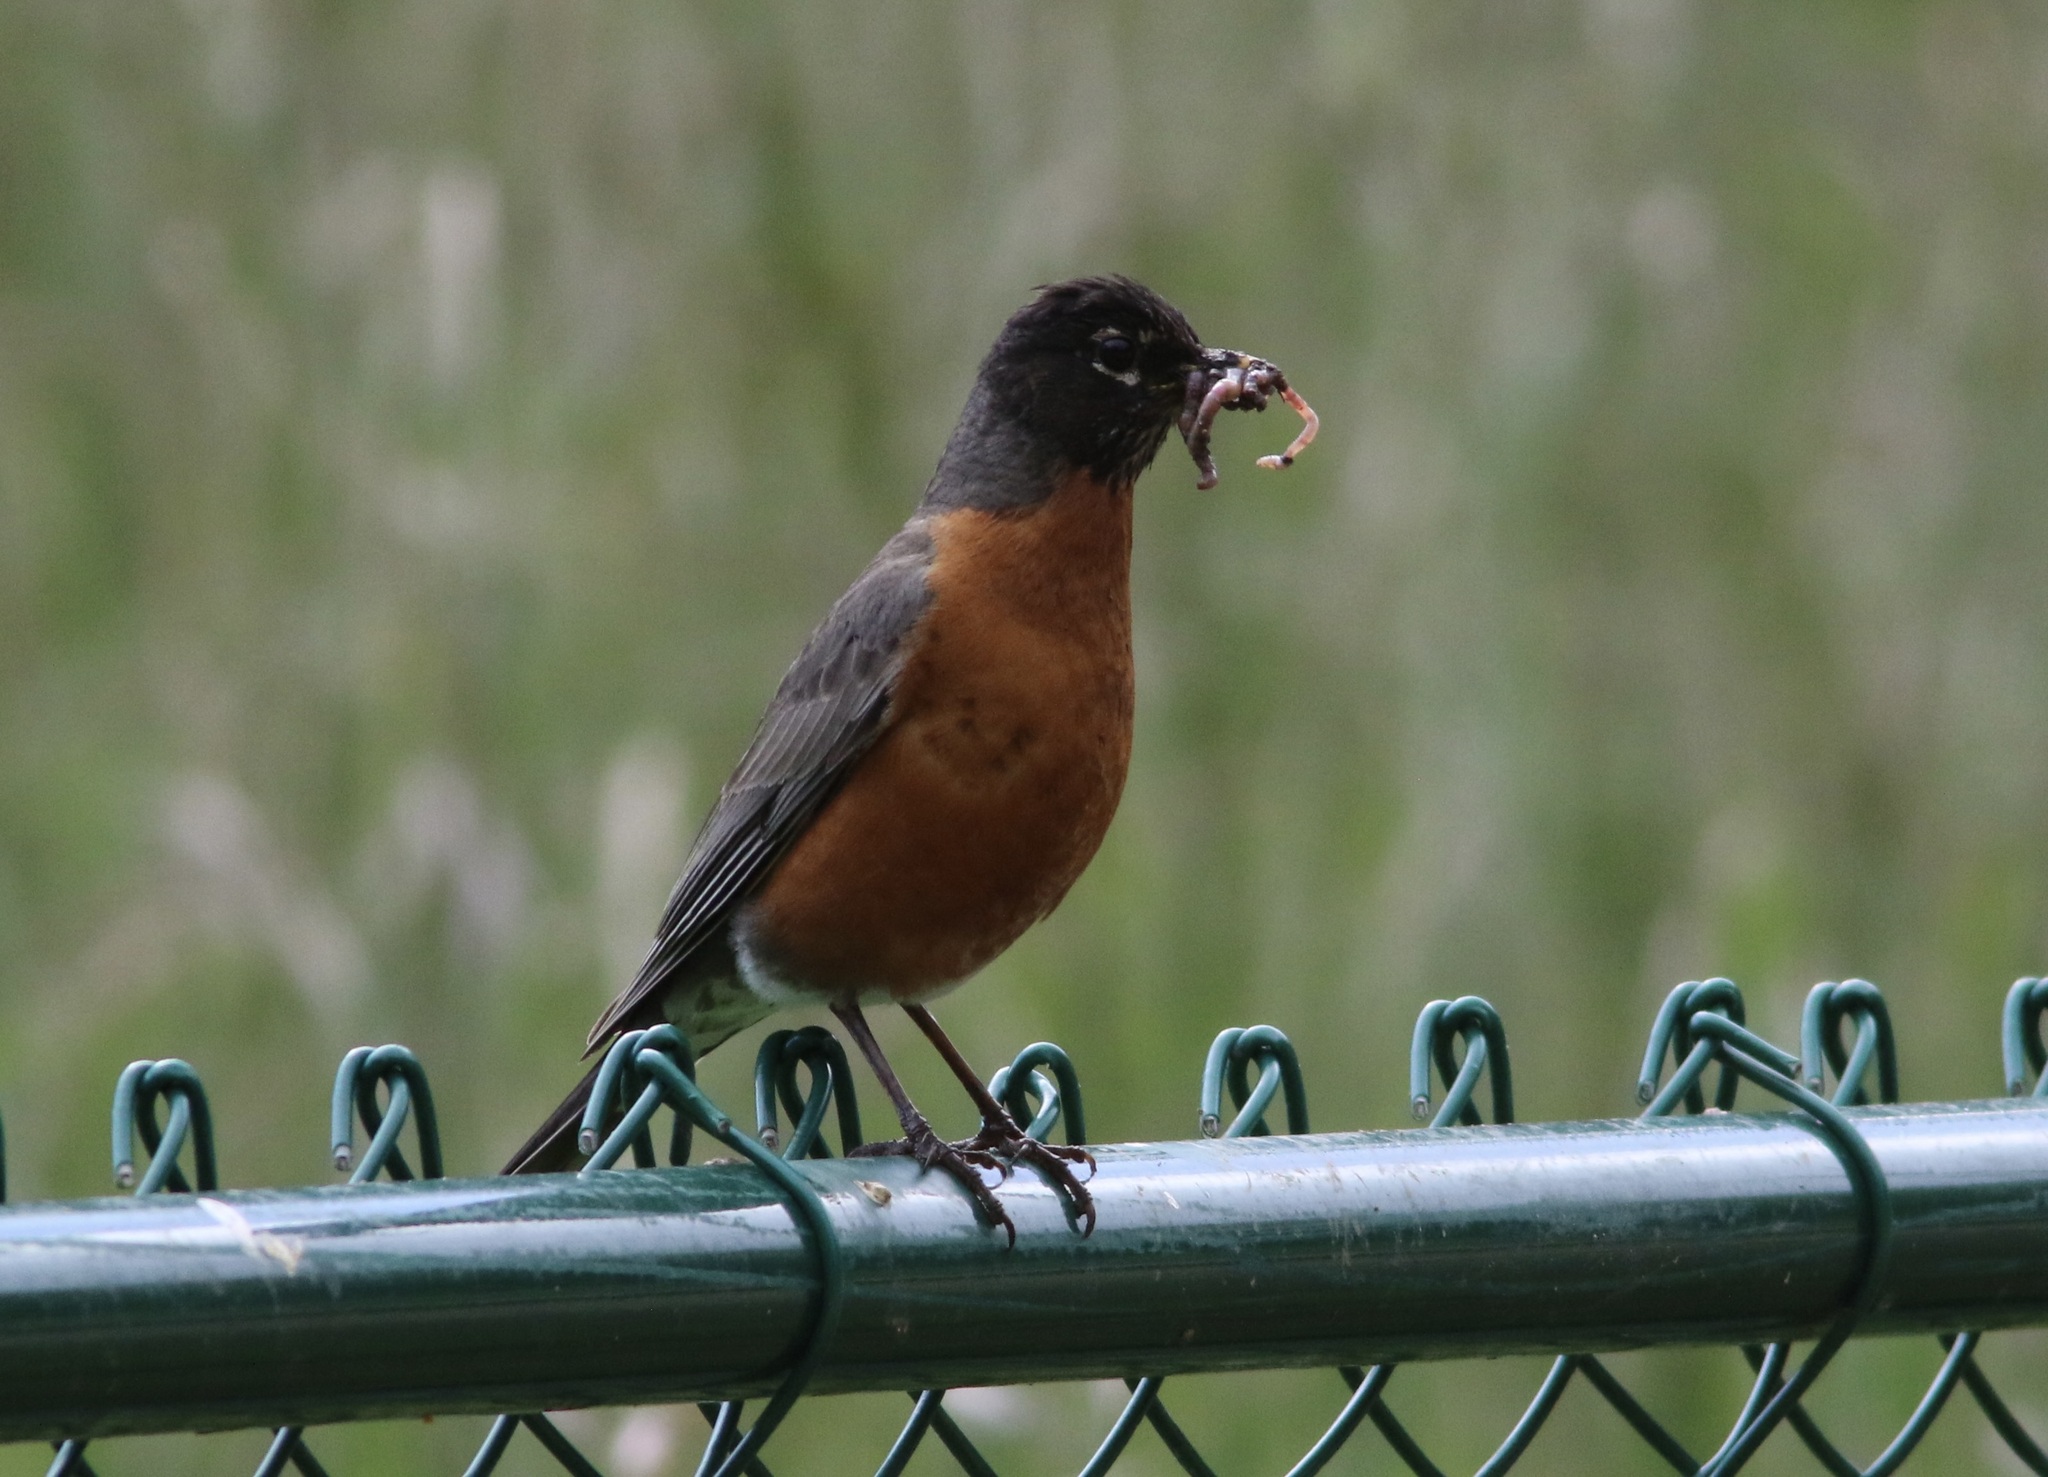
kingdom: Animalia
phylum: Chordata
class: Aves
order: Passeriformes
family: Turdidae
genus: Turdus
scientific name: Turdus migratorius
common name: American robin
